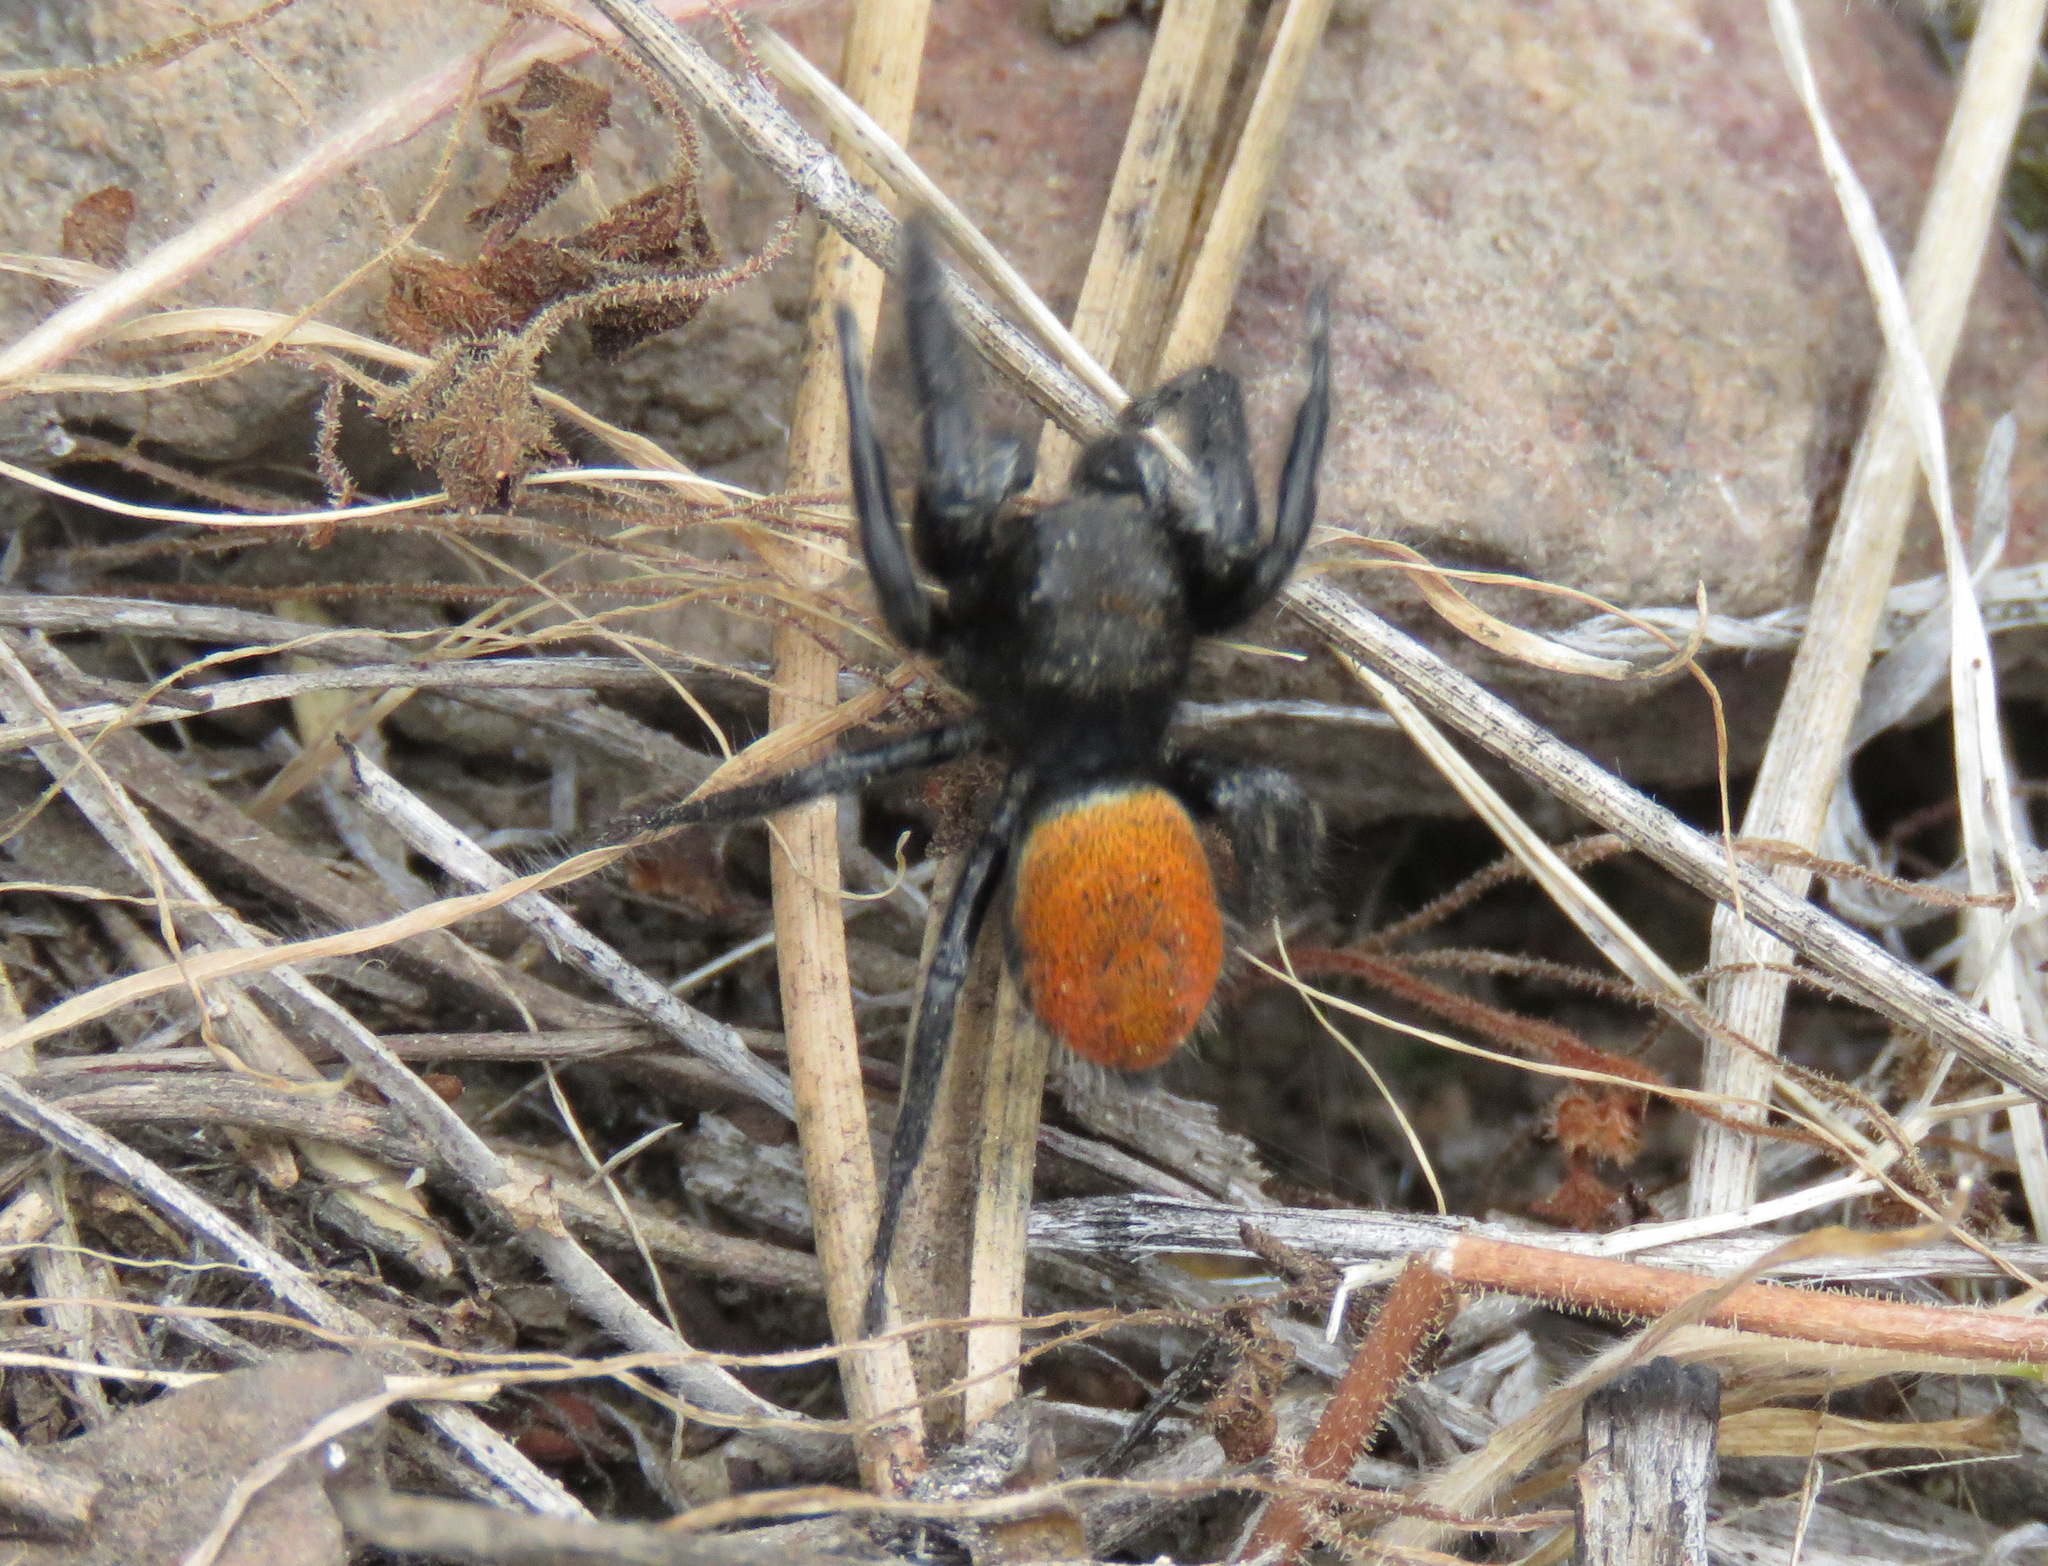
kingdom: Animalia
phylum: Arthropoda
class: Arachnida
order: Araneae
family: Salticidae
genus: Phidippus
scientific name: Phidippus johnsoni
